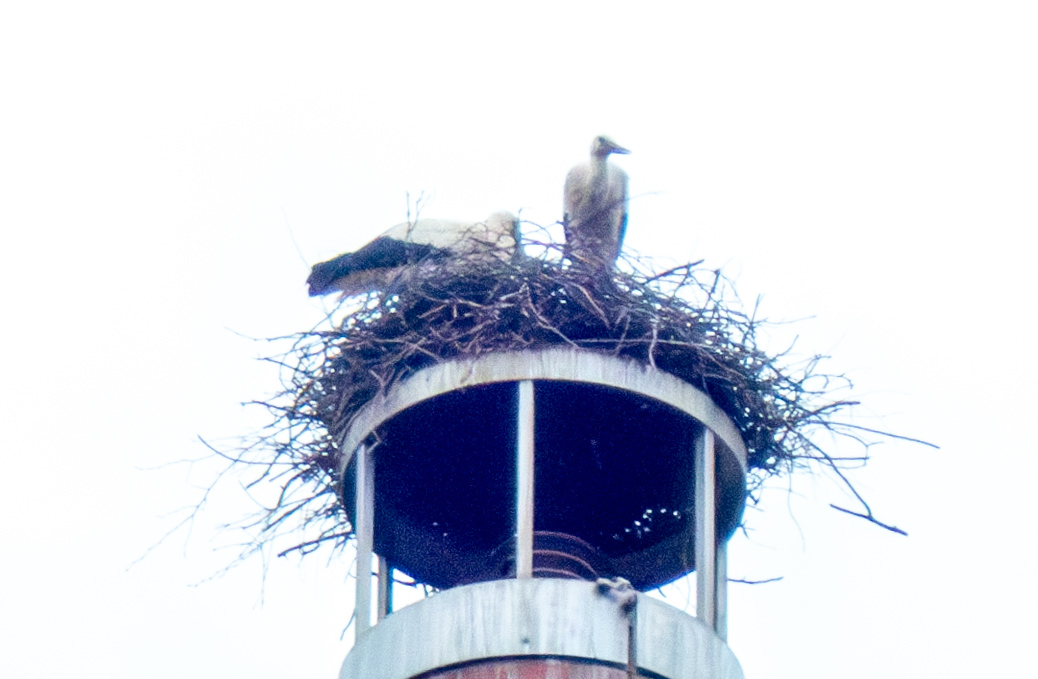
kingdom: Animalia
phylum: Chordata
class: Aves
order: Ciconiiformes
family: Ciconiidae
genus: Ciconia
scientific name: Ciconia ciconia
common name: White stork
